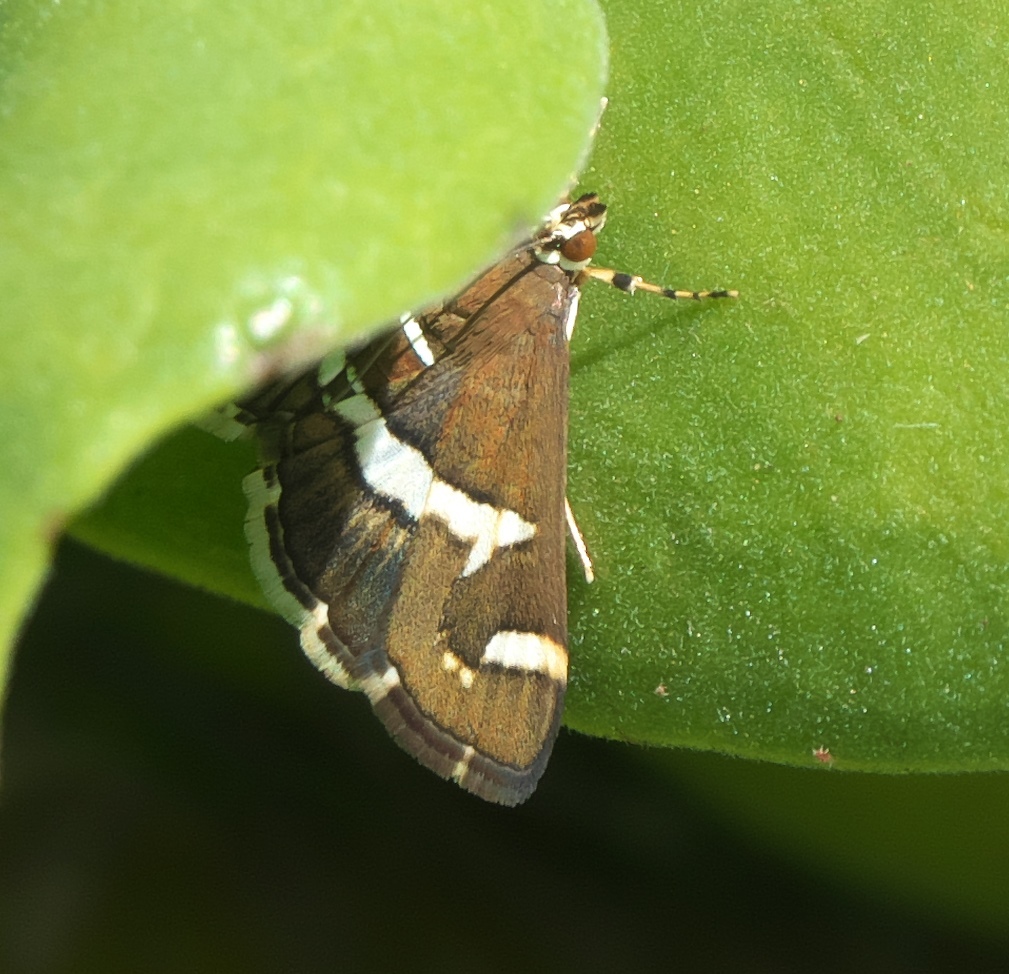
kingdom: Animalia
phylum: Arthropoda
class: Insecta
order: Lepidoptera
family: Crambidae
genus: Spoladea
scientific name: Spoladea recurvalis
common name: Beet webworm moth
